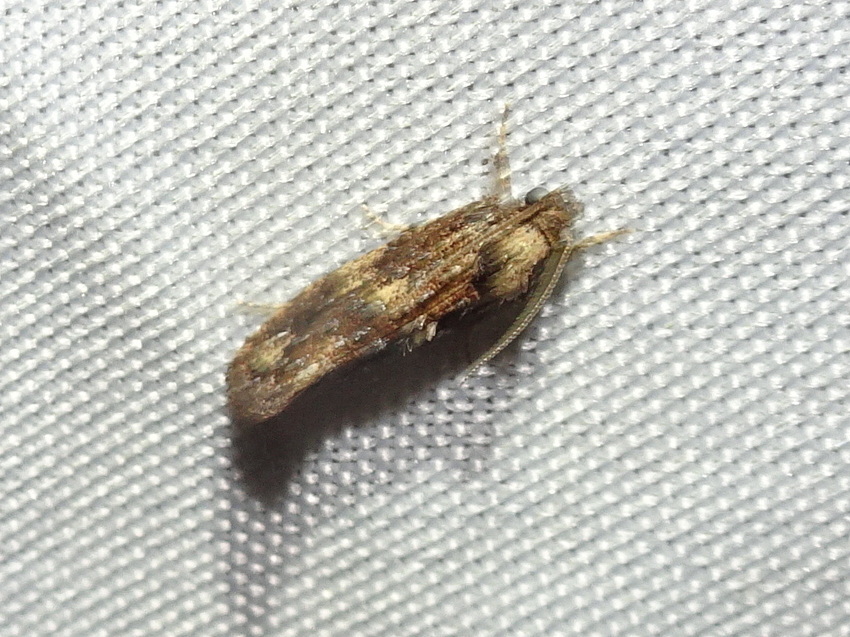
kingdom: Animalia
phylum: Arthropoda
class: Insecta
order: Lepidoptera
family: Tineidae
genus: Acrolophus
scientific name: Acrolophus cressoni
